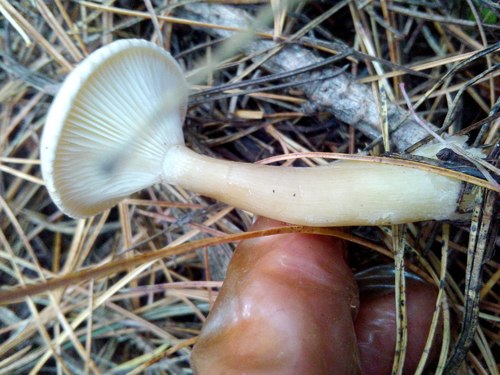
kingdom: Fungi
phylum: Basidiomycota
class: Agaricomycetes
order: Agaricales
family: Hygrophoraceae
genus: Ampulloclitocybe
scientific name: Ampulloclitocybe clavipes
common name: Club foot
